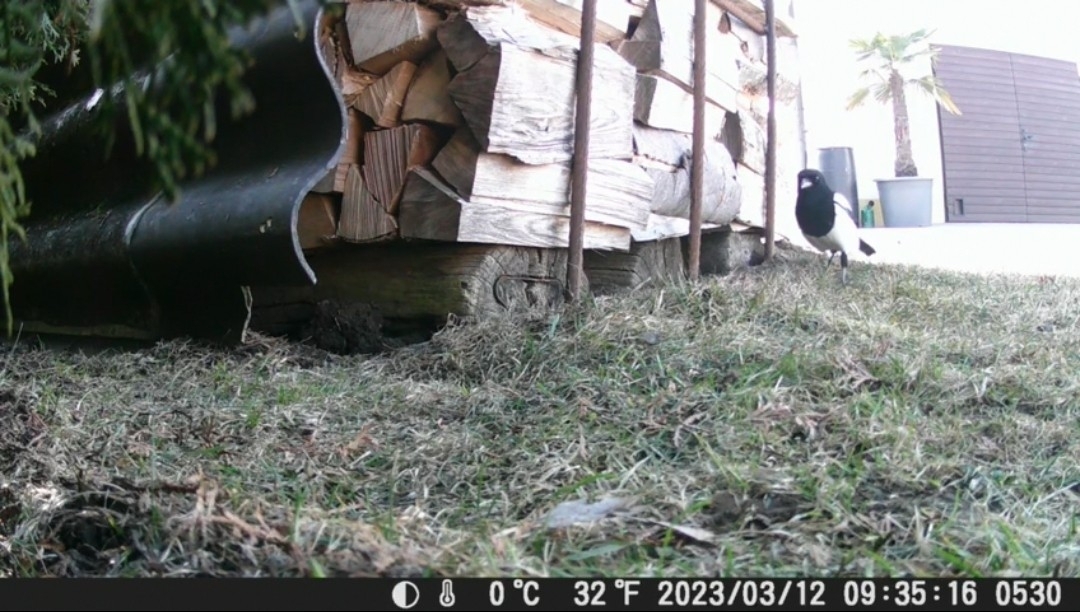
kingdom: Animalia
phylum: Chordata
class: Aves
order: Passeriformes
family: Corvidae
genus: Pica
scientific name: Pica pica
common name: Eurasian magpie
